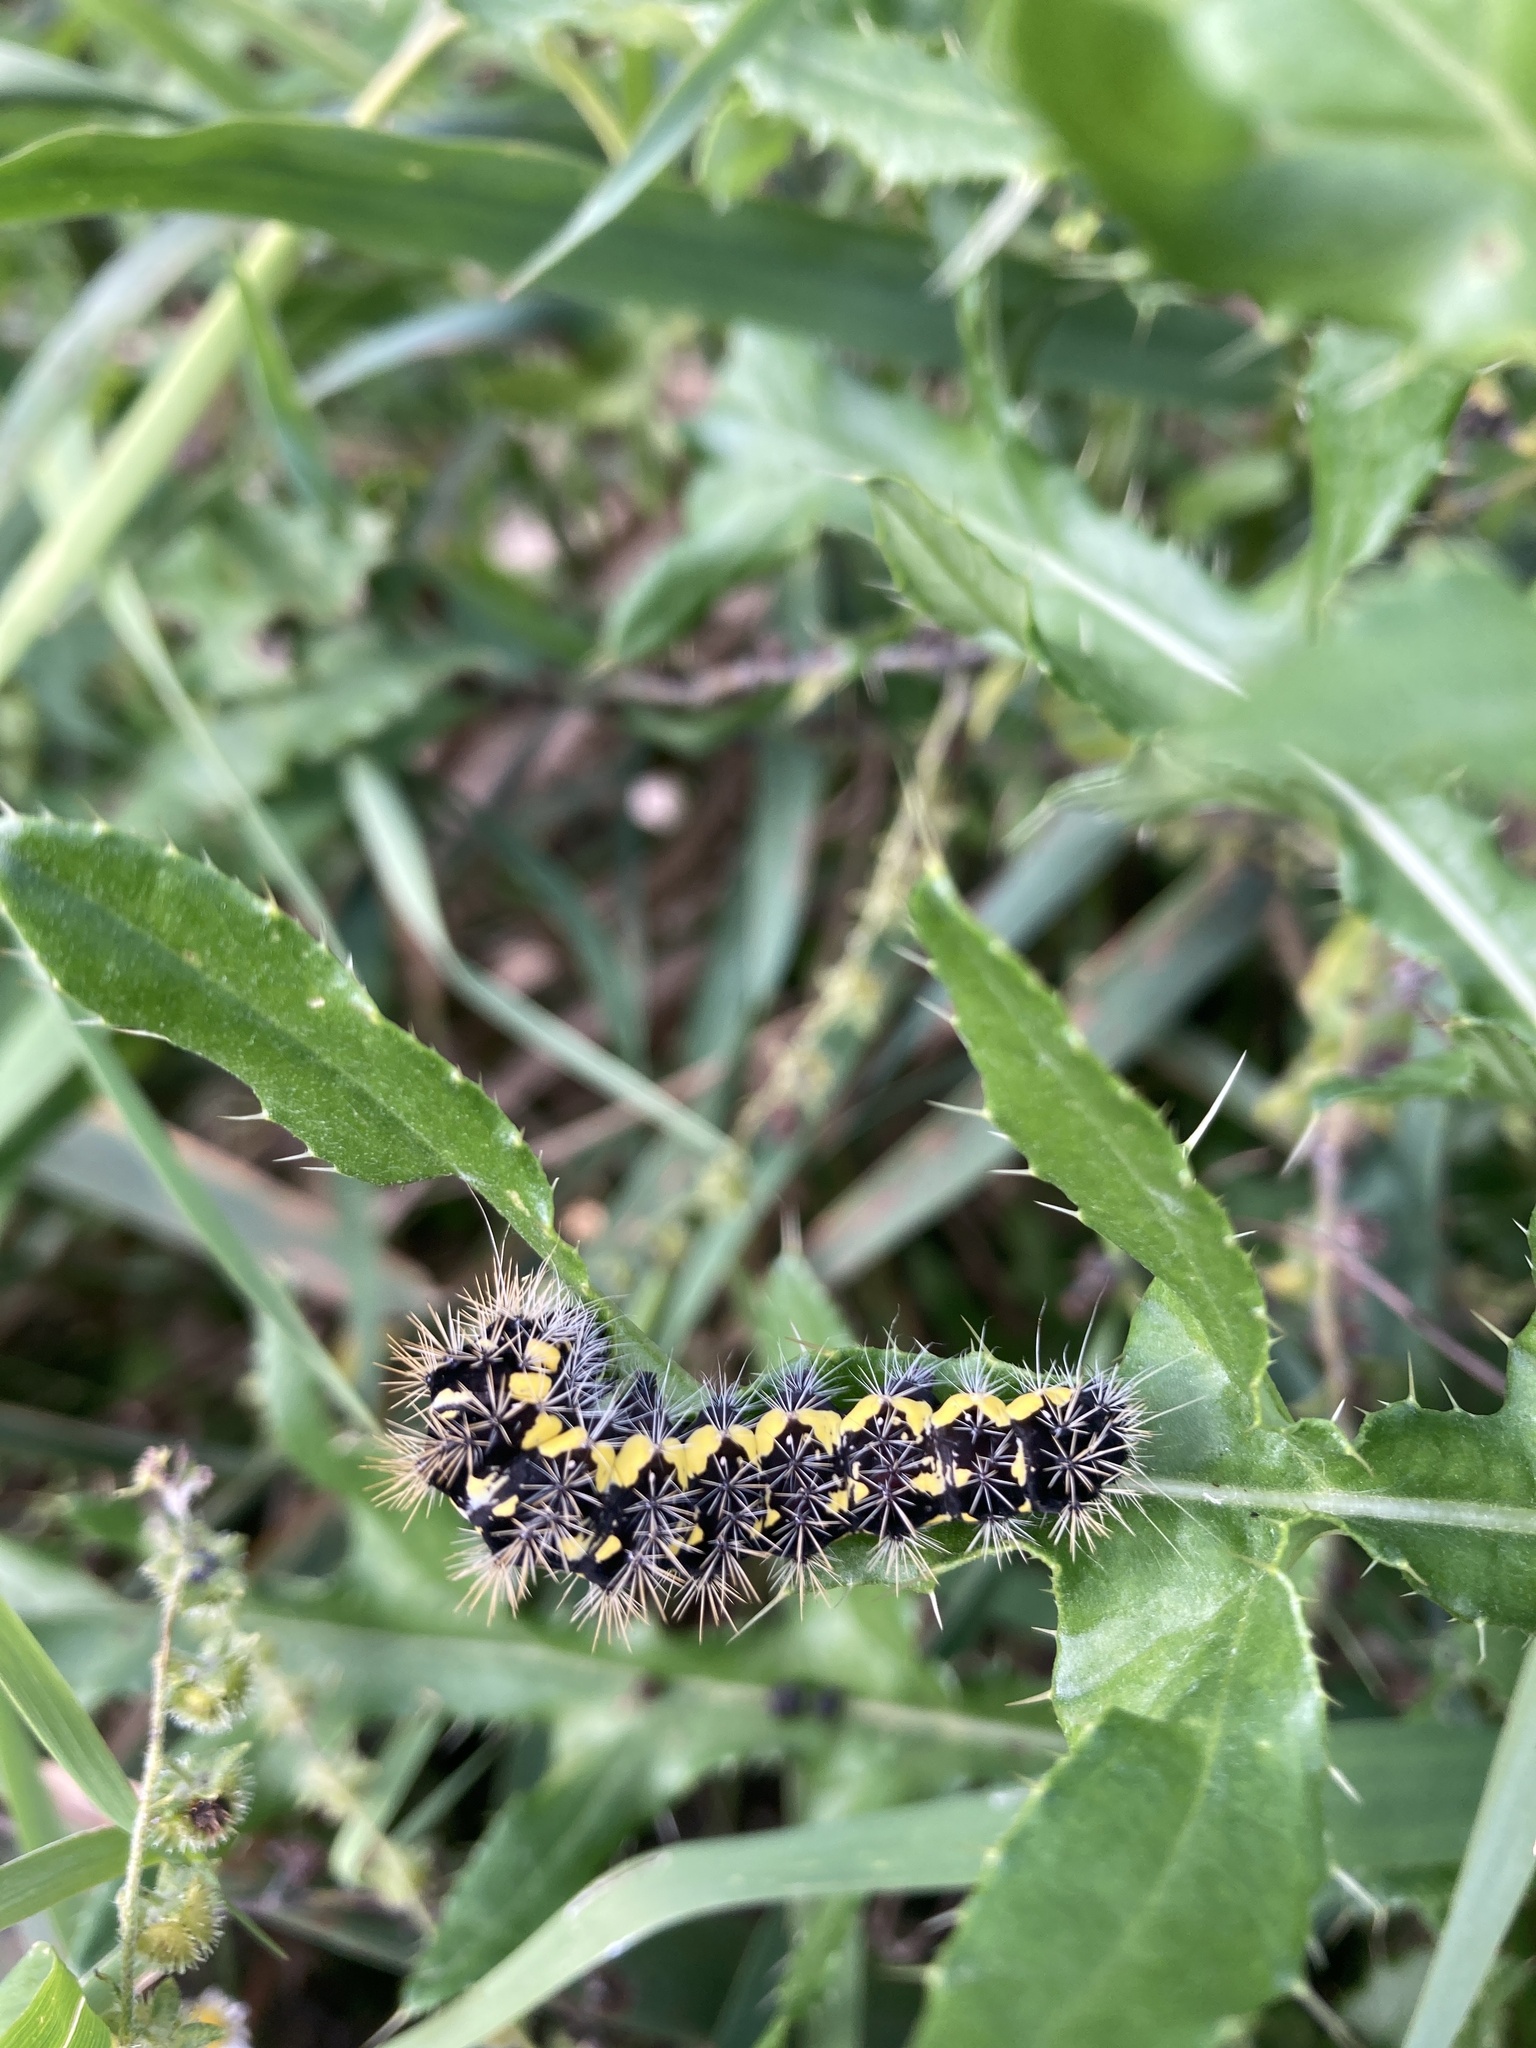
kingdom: Animalia
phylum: Arthropoda
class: Insecta
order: Lepidoptera
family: Noctuidae
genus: Acronicta
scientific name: Acronicta oblinita
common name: Smeared dagger
